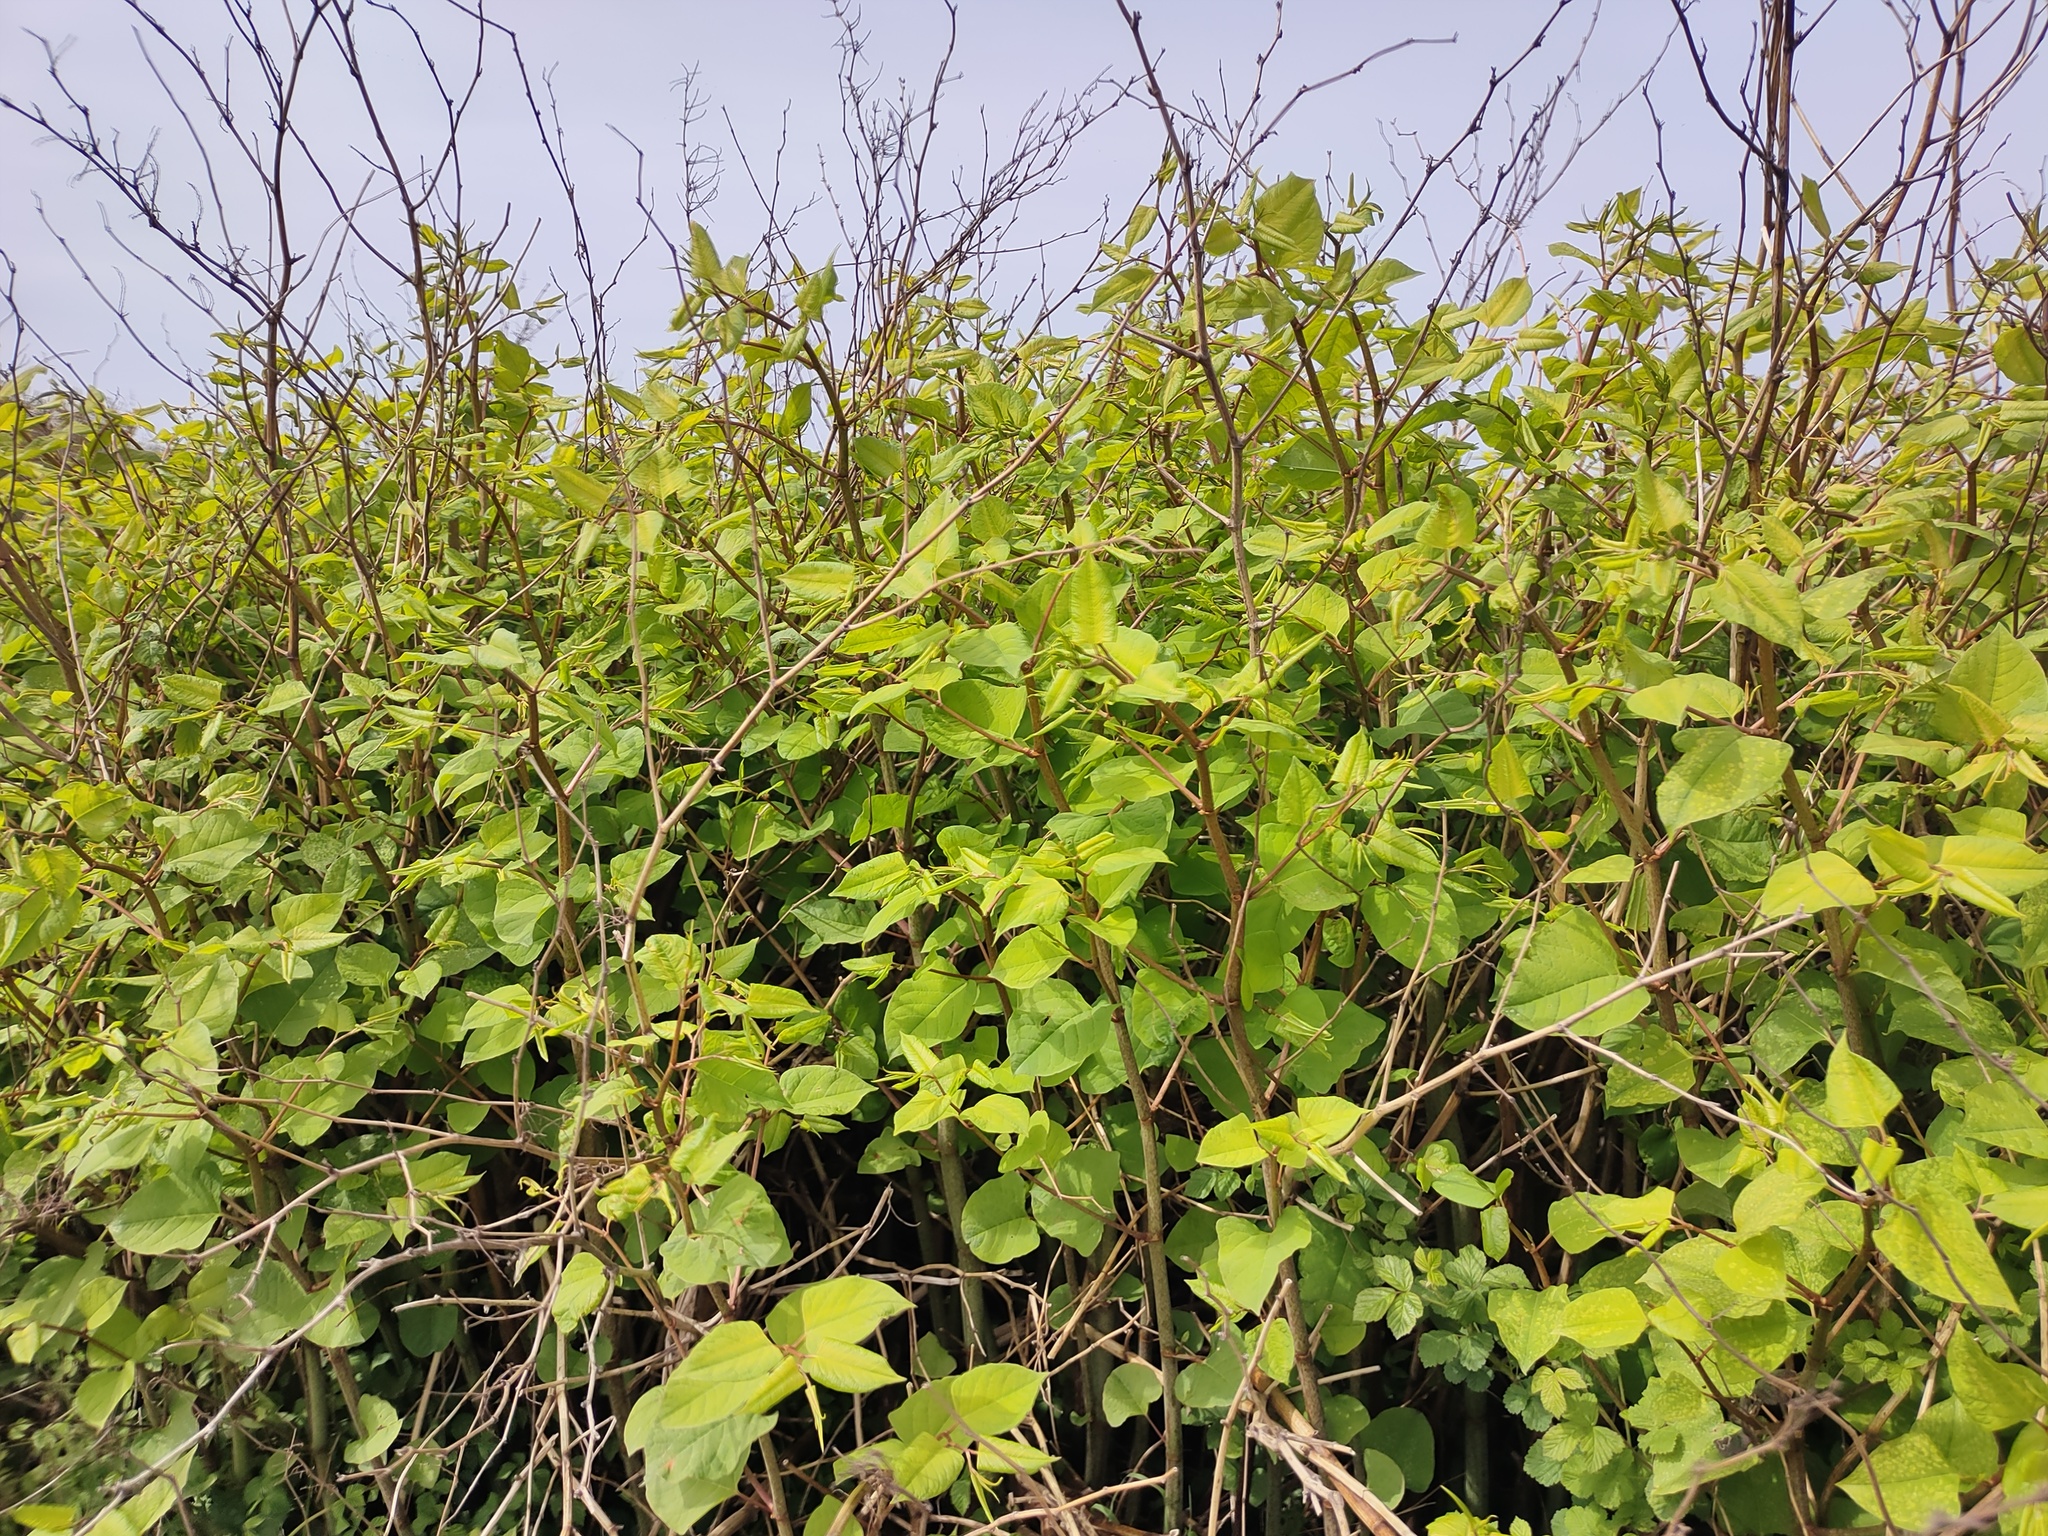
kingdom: Plantae
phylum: Tracheophyta
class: Magnoliopsida
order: Caryophyllales
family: Polygonaceae
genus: Reynoutria
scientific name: Reynoutria japonica
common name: Japanese knotweed
